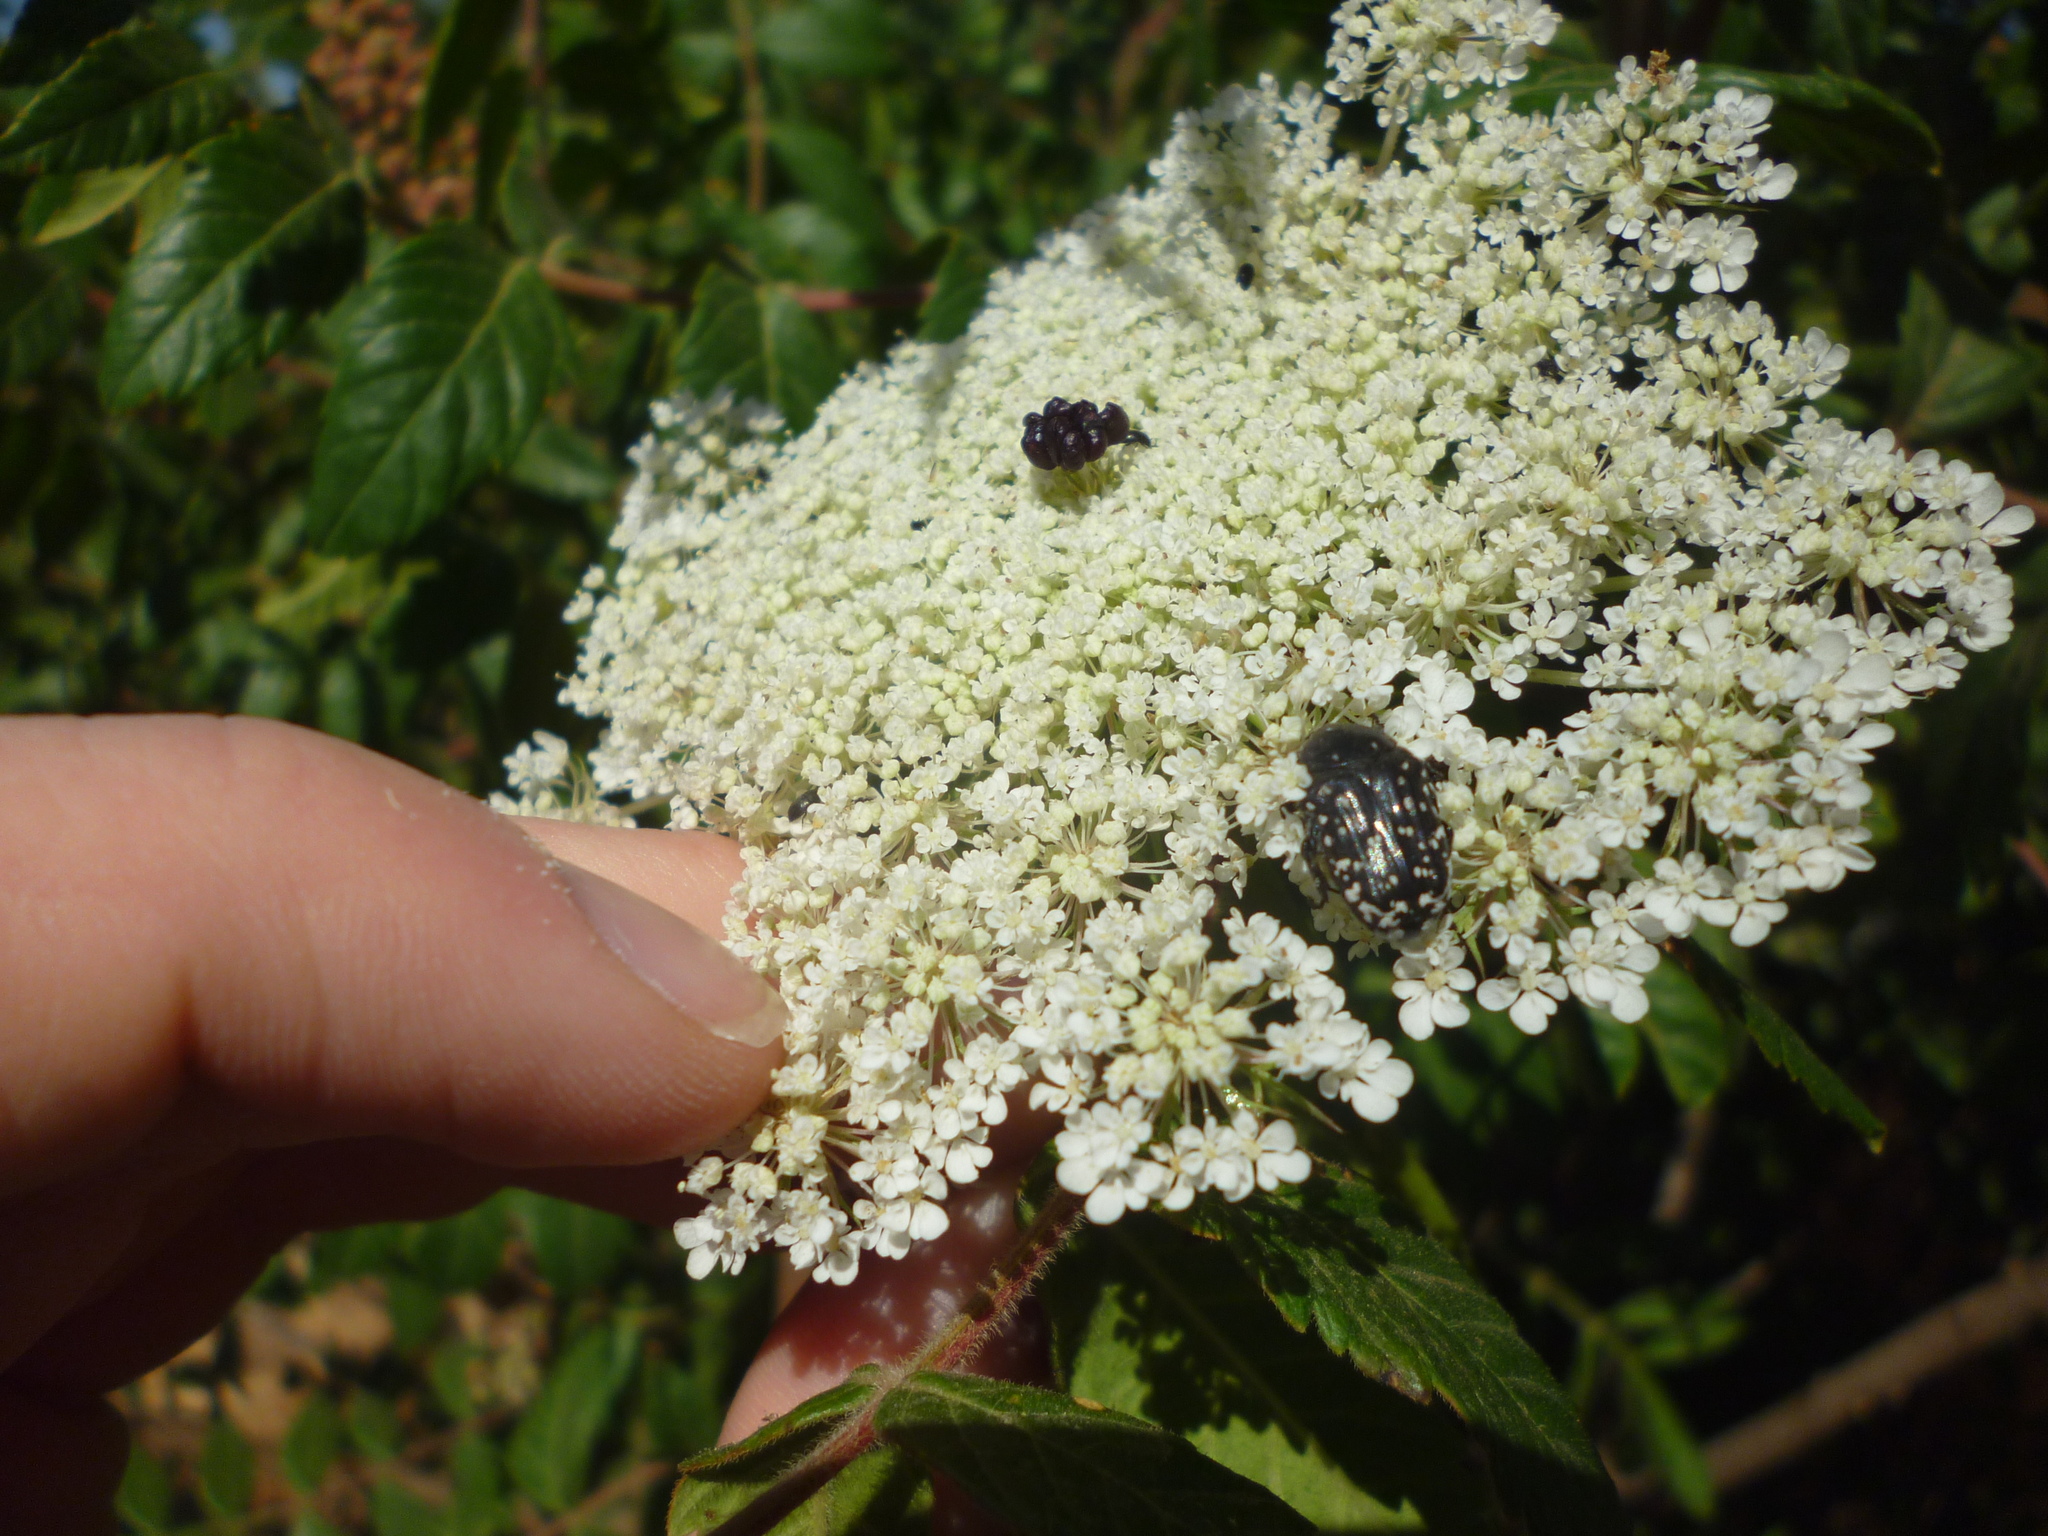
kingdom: Plantae
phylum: Tracheophyta
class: Magnoliopsida
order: Apiales
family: Apiaceae
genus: Daucus
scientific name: Daucus carota
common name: Wild carrot
